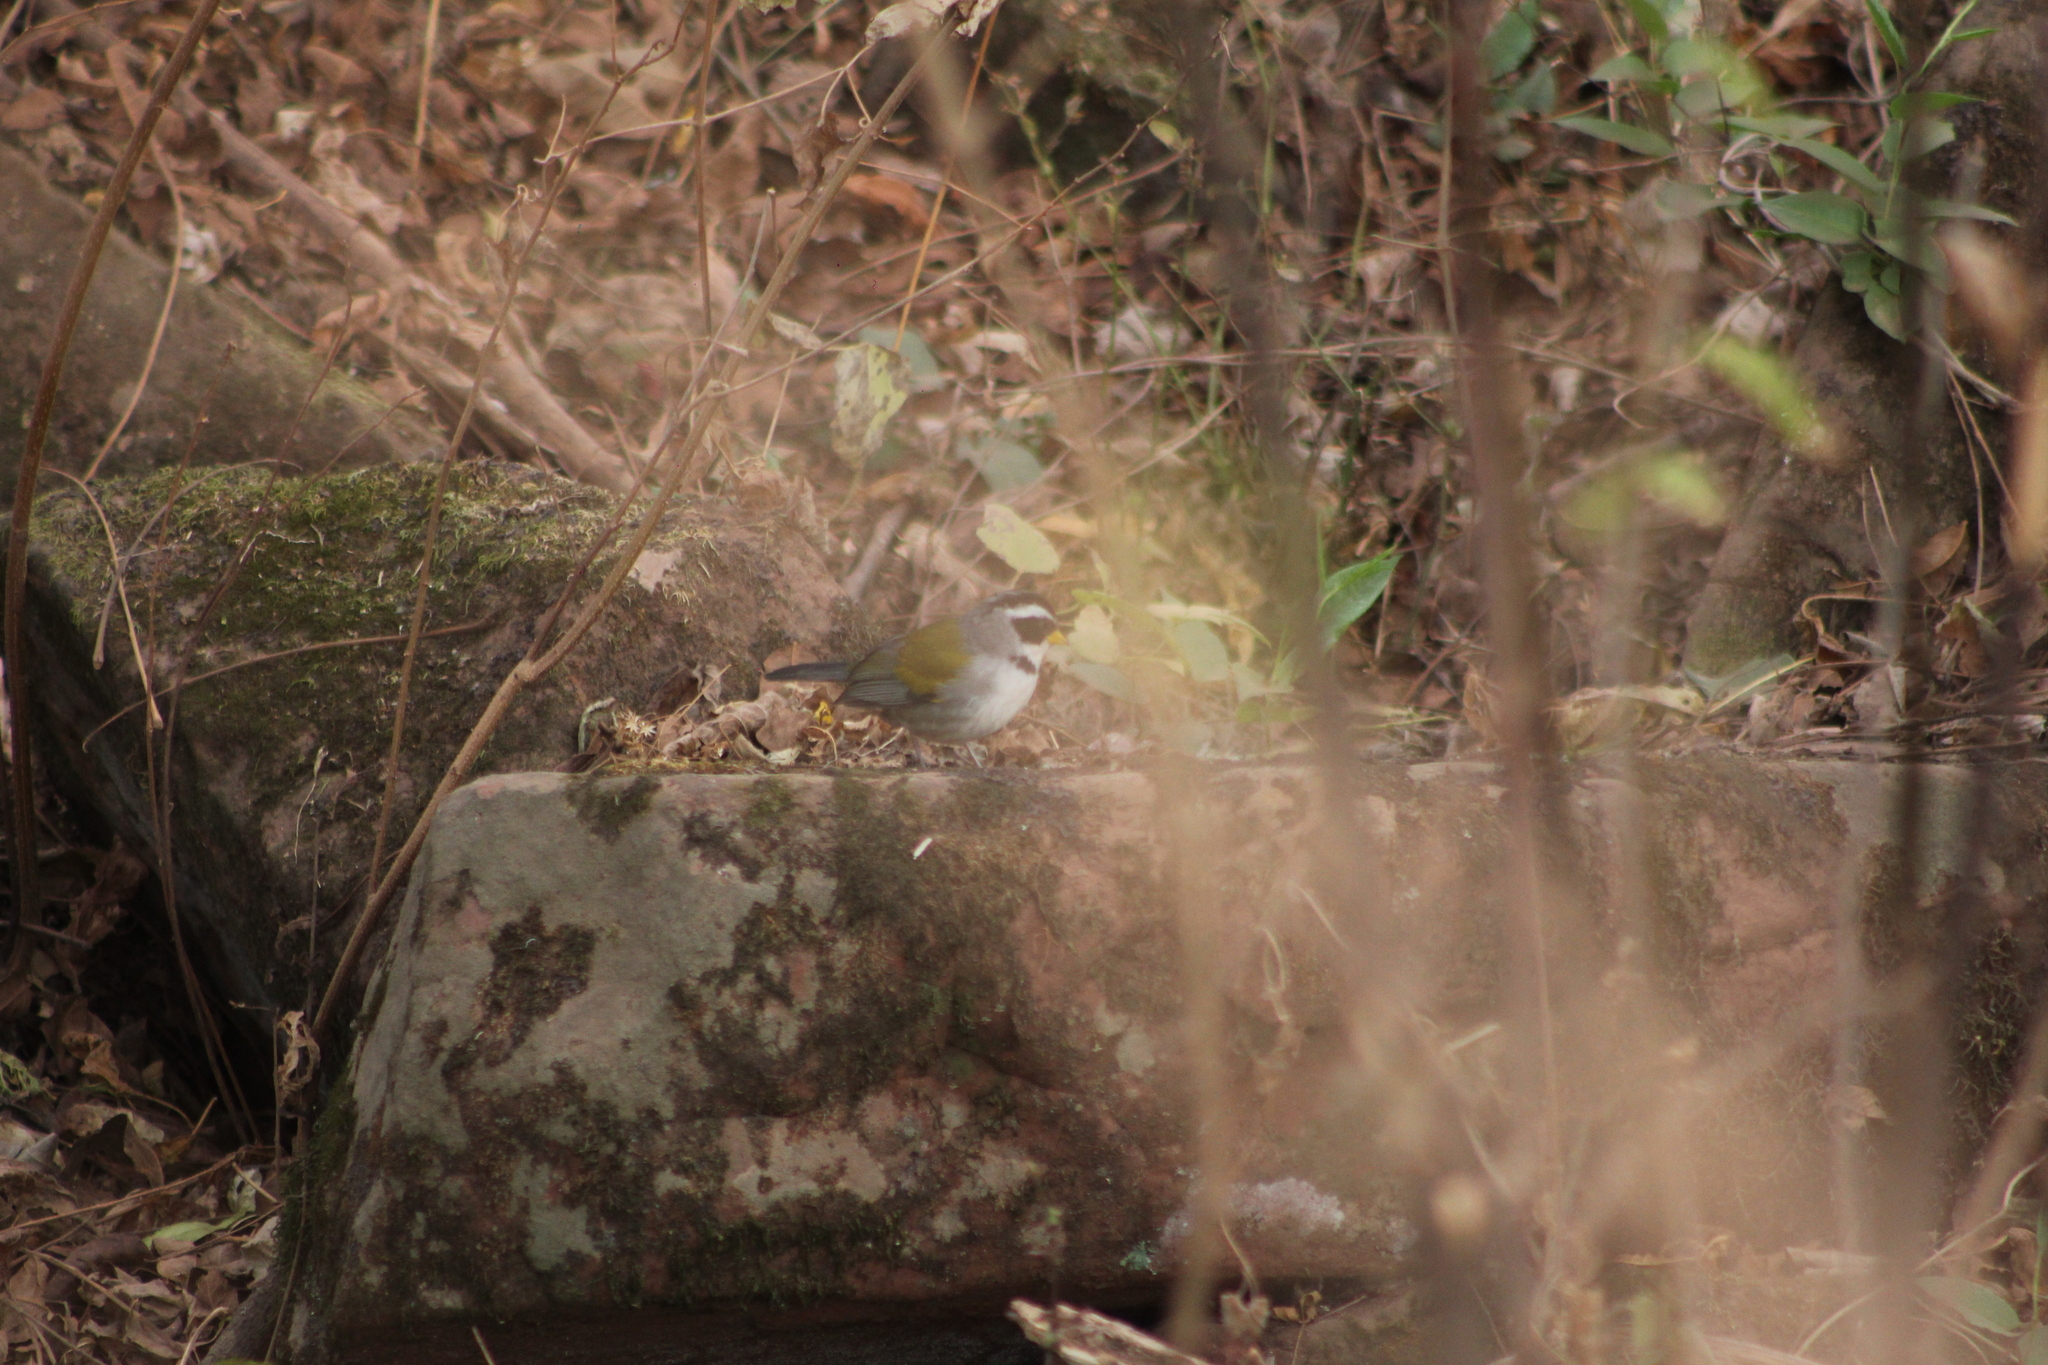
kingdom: Animalia
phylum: Chordata
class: Aves
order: Passeriformes
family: Passerellidae
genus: Arremon
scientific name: Arremon dorbignii
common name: Moss-backed sparrow
